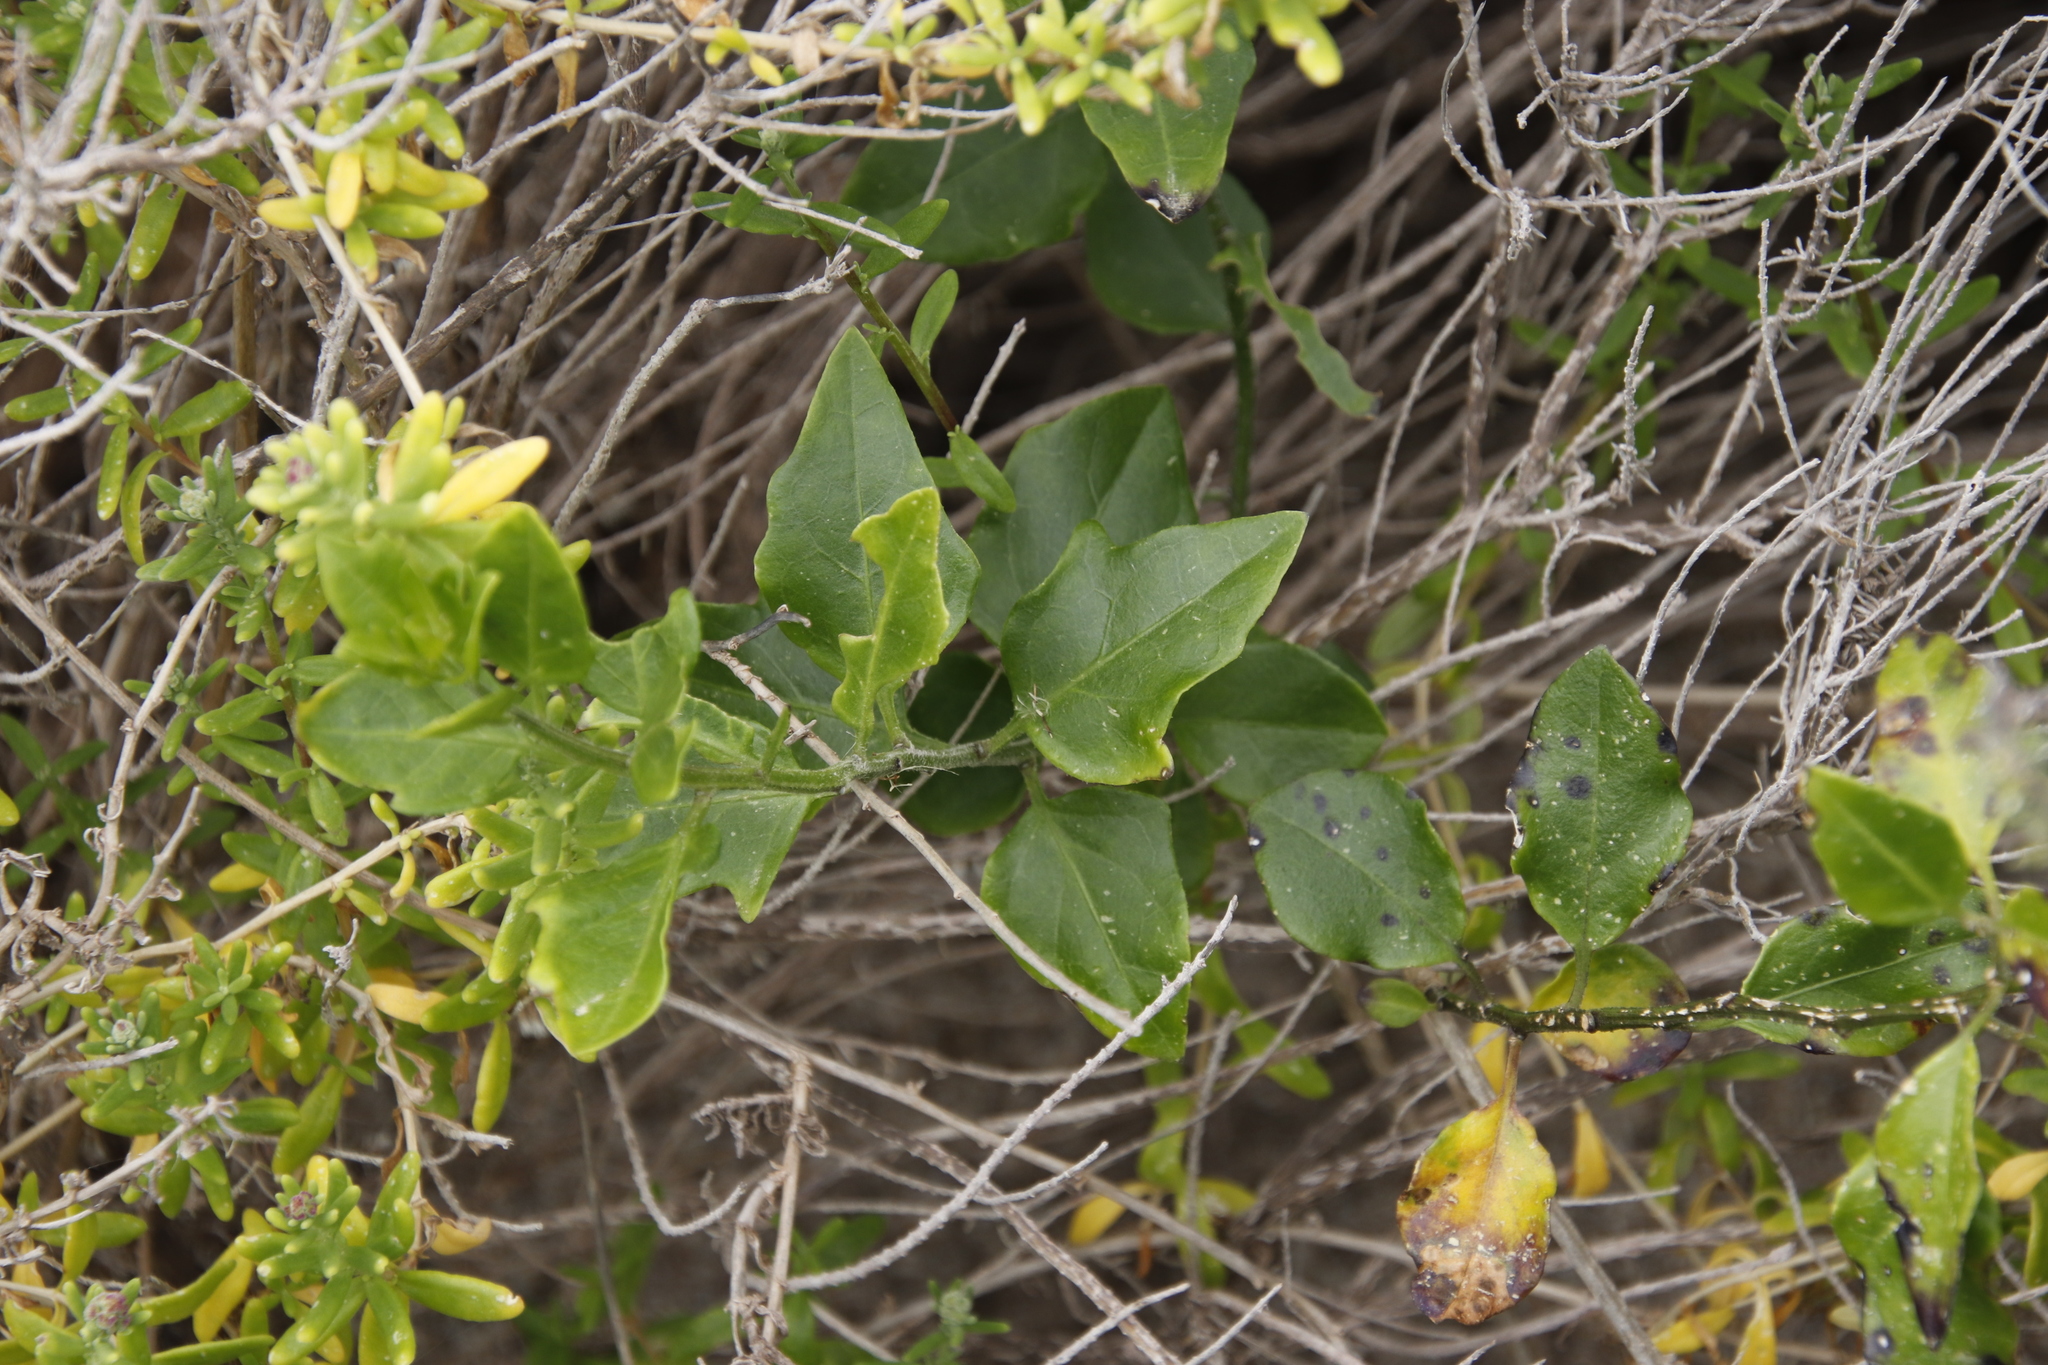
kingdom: Plantae
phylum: Tracheophyta
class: Magnoliopsida
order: Solanales
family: Solanaceae
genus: Solanum
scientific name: Solanum africanum
